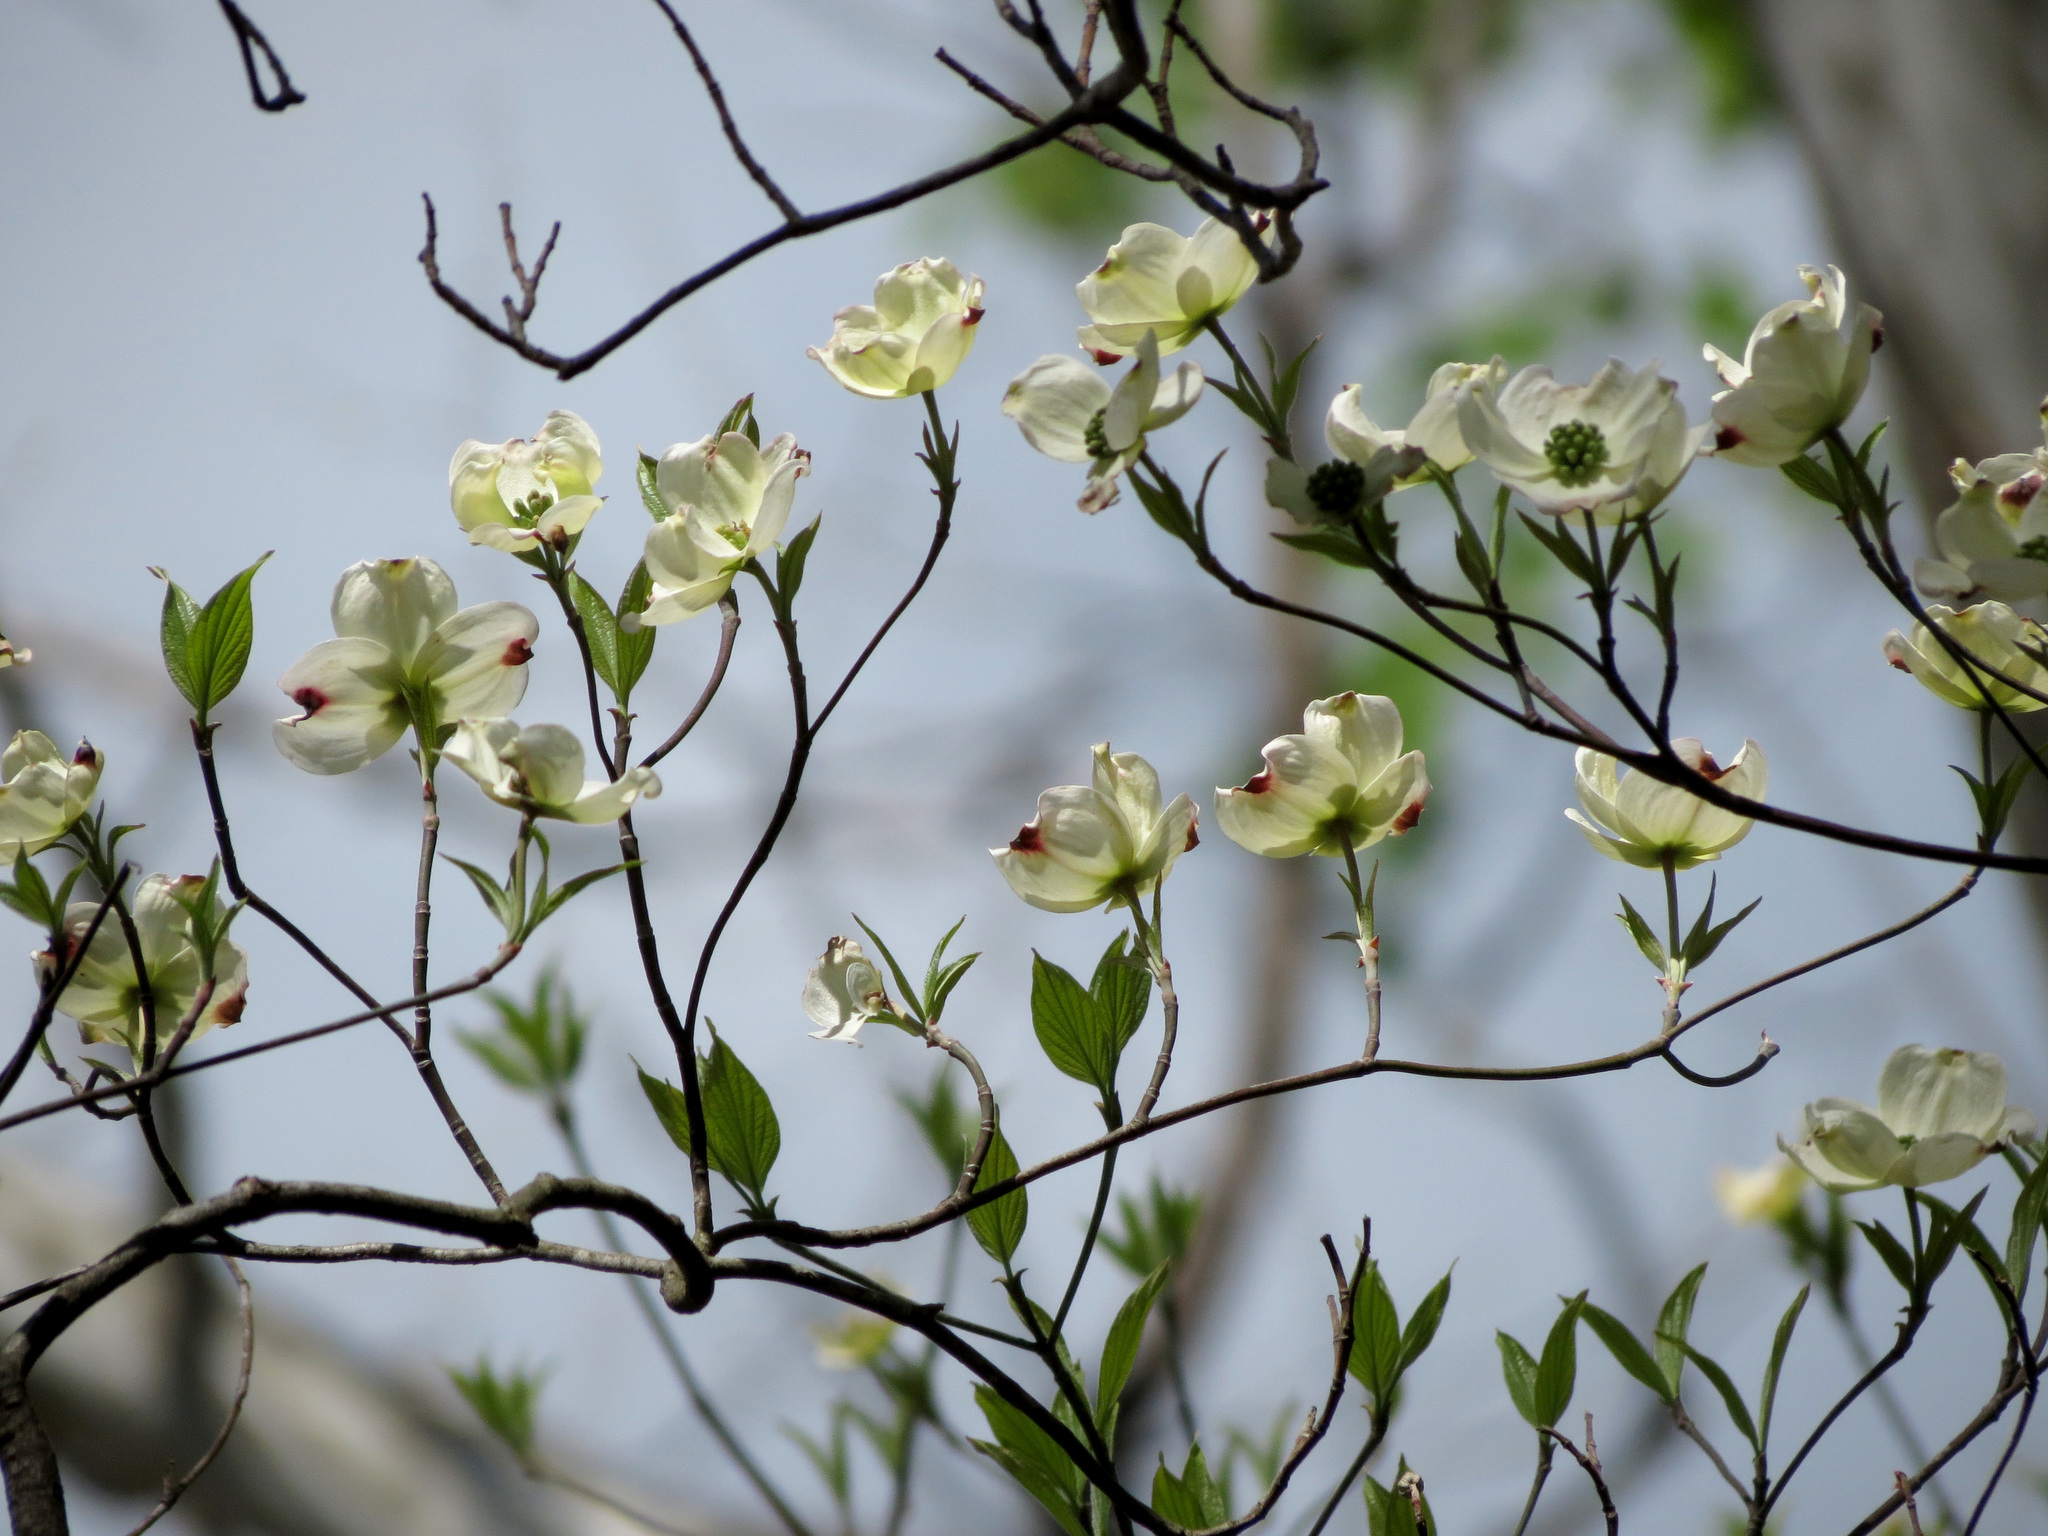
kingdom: Plantae
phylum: Tracheophyta
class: Magnoliopsida
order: Cornales
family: Cornaceae
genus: Cornus
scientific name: Cornus florida
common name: Flowering dogwood
